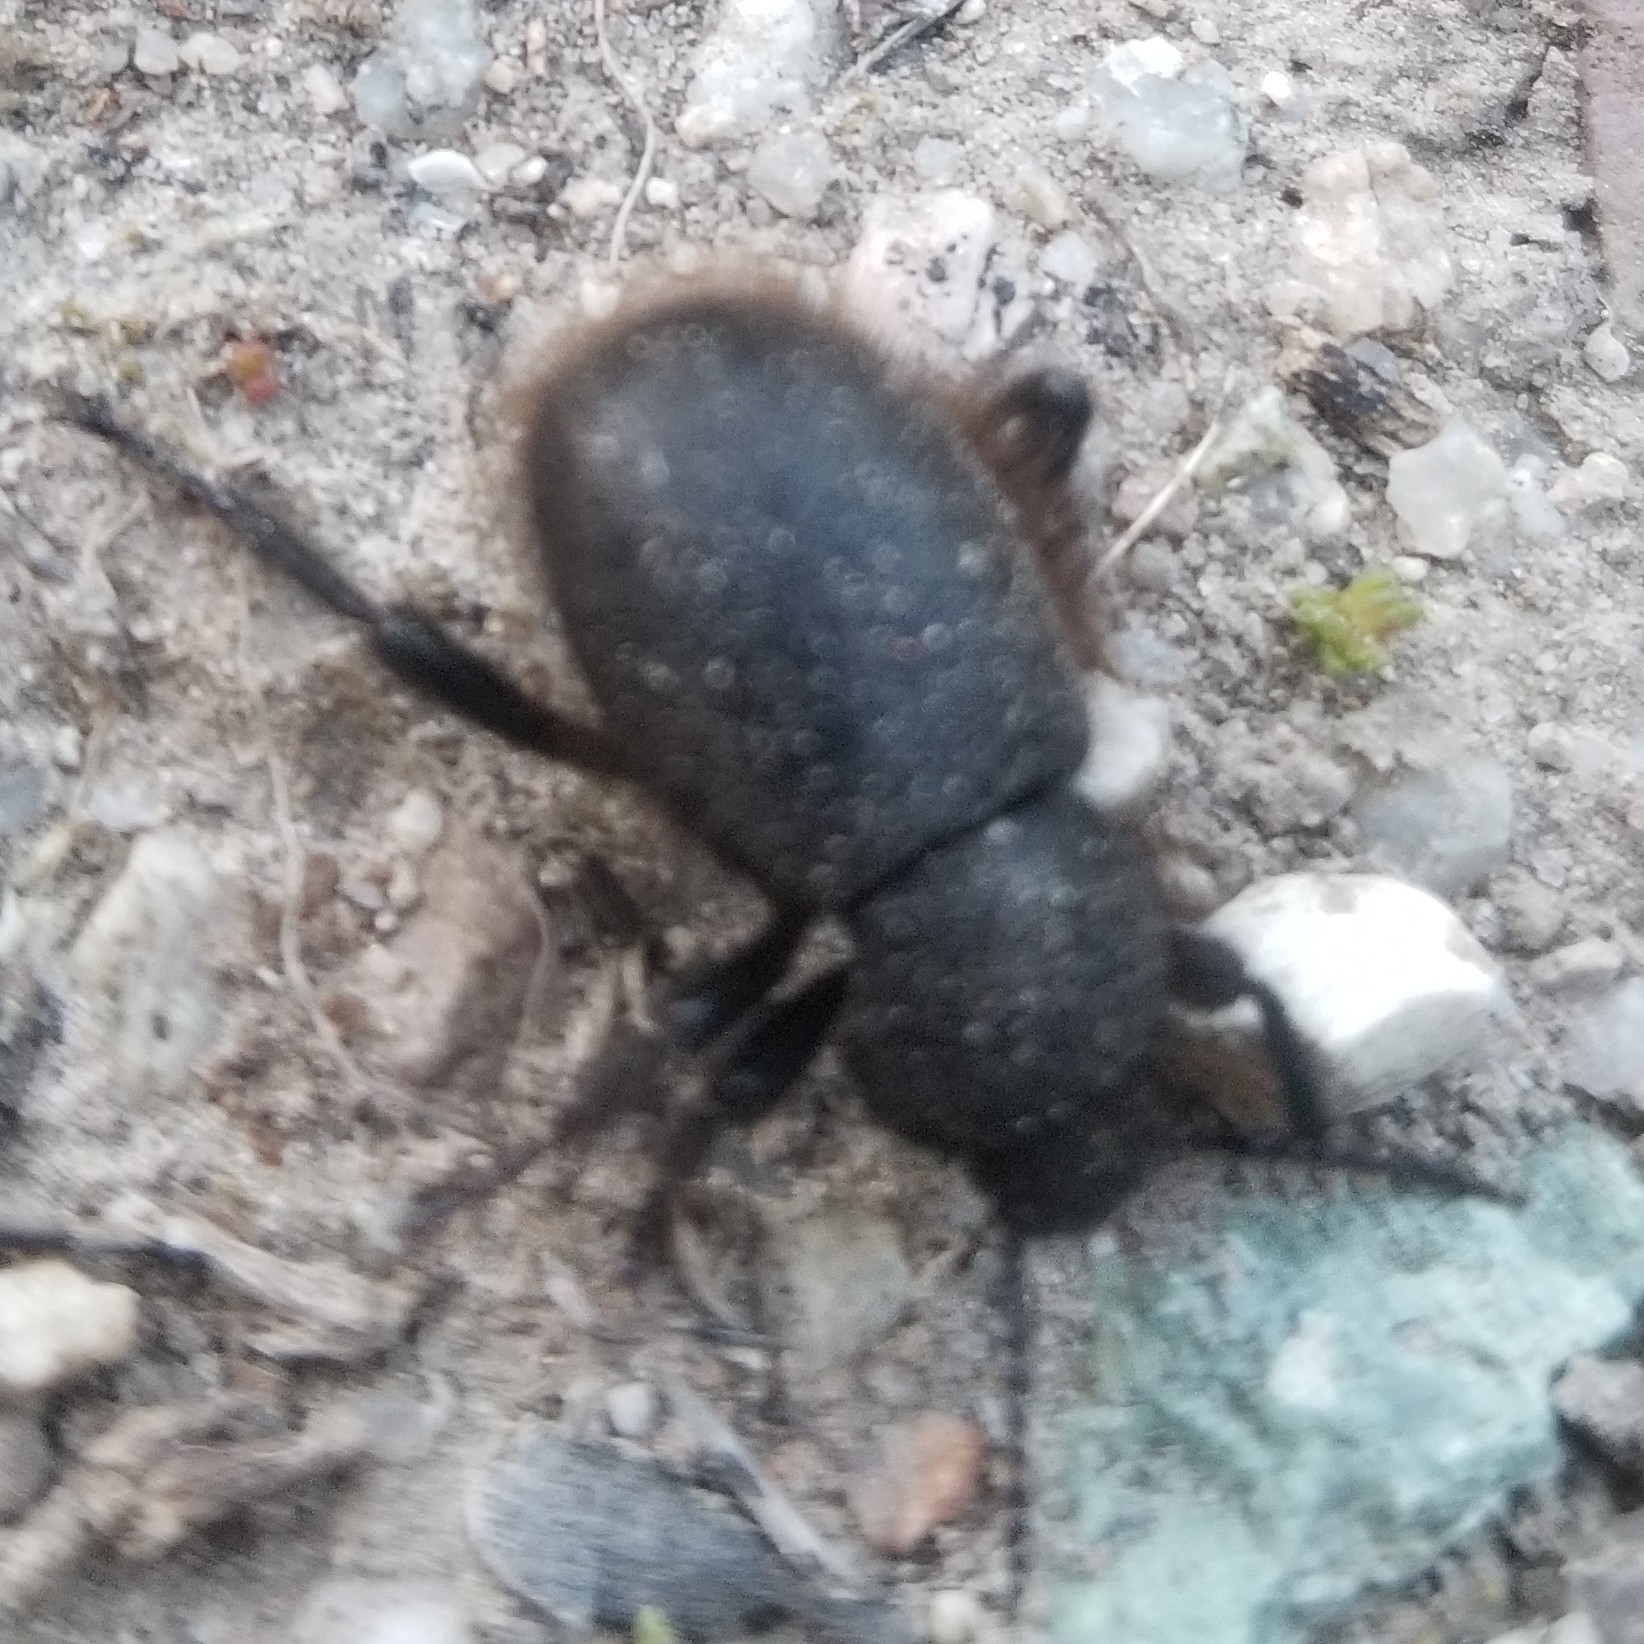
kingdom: Animalia
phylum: Arthropoda
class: Insecta
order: Coleoptera
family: Tenebrionidae
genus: Eleodes
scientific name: Eleodes osculans
